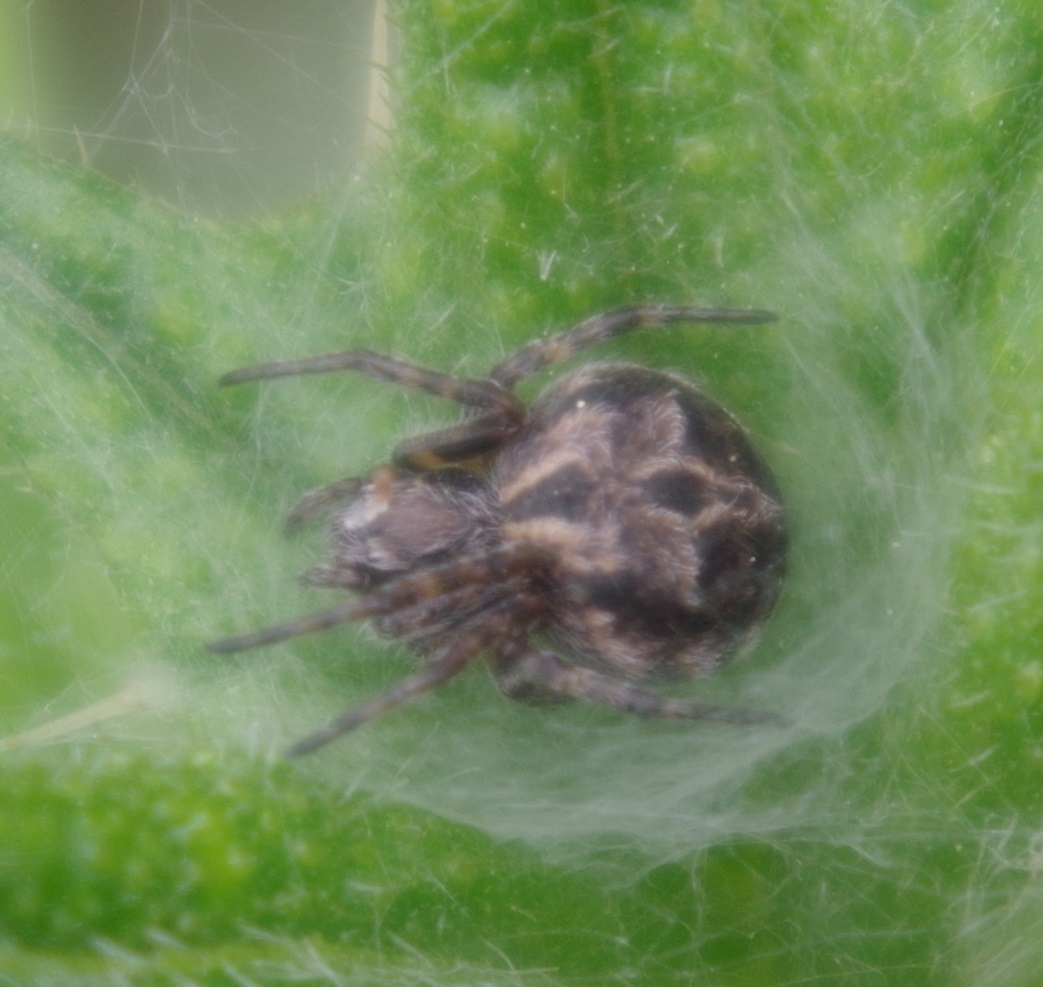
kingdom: Animalia
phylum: Arthropoda
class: Arachnida
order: Araneae
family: Araneidae
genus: Agalenatea
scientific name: Agalenatea redii
